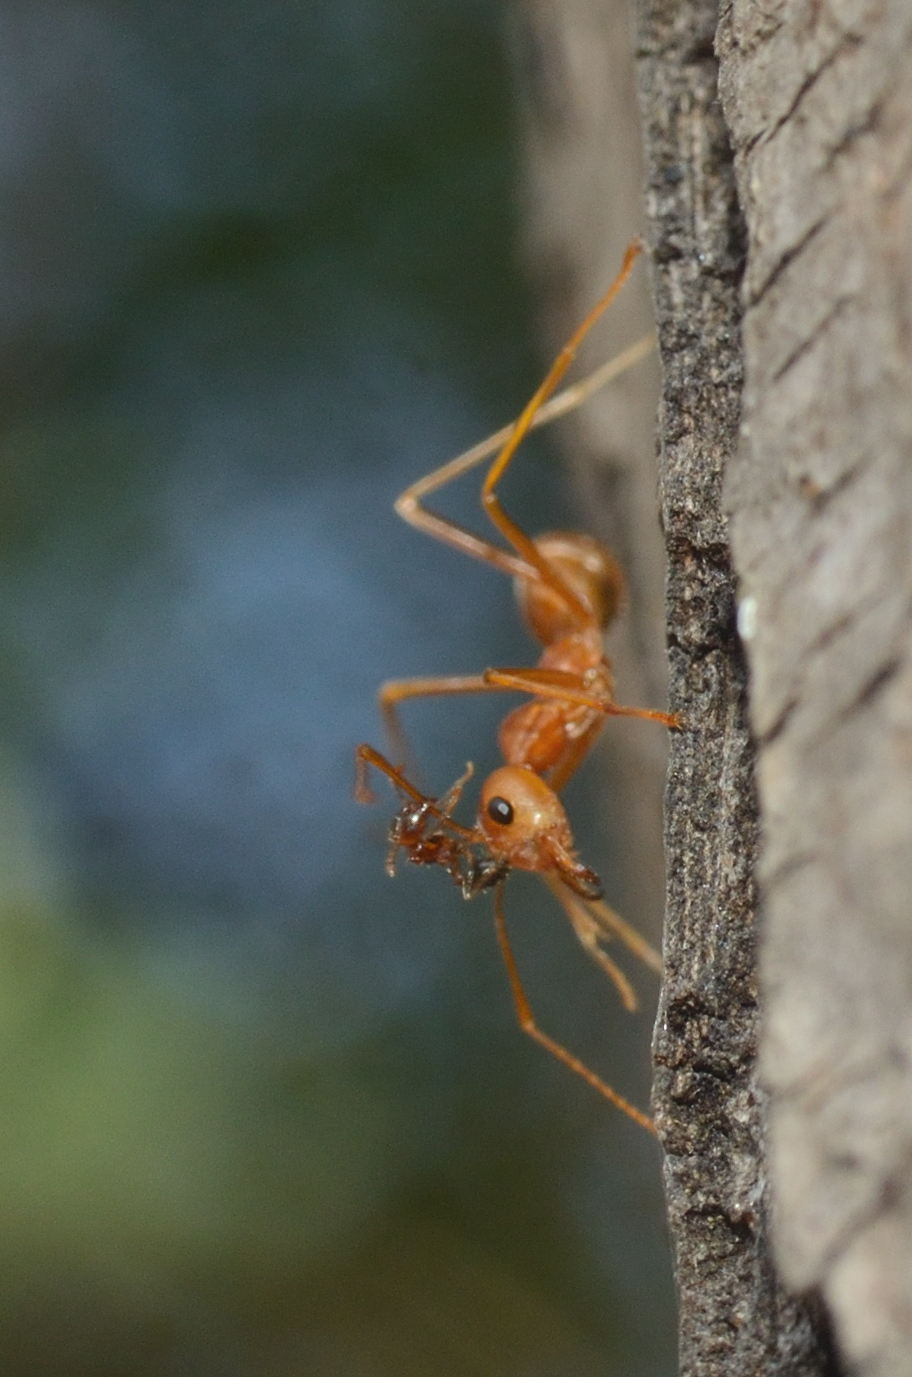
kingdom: Animalia
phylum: Arthropoda
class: Insecta
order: Hymenoptera
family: Formicidae
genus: Oecophylla
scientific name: Oecophylla smaragdina
